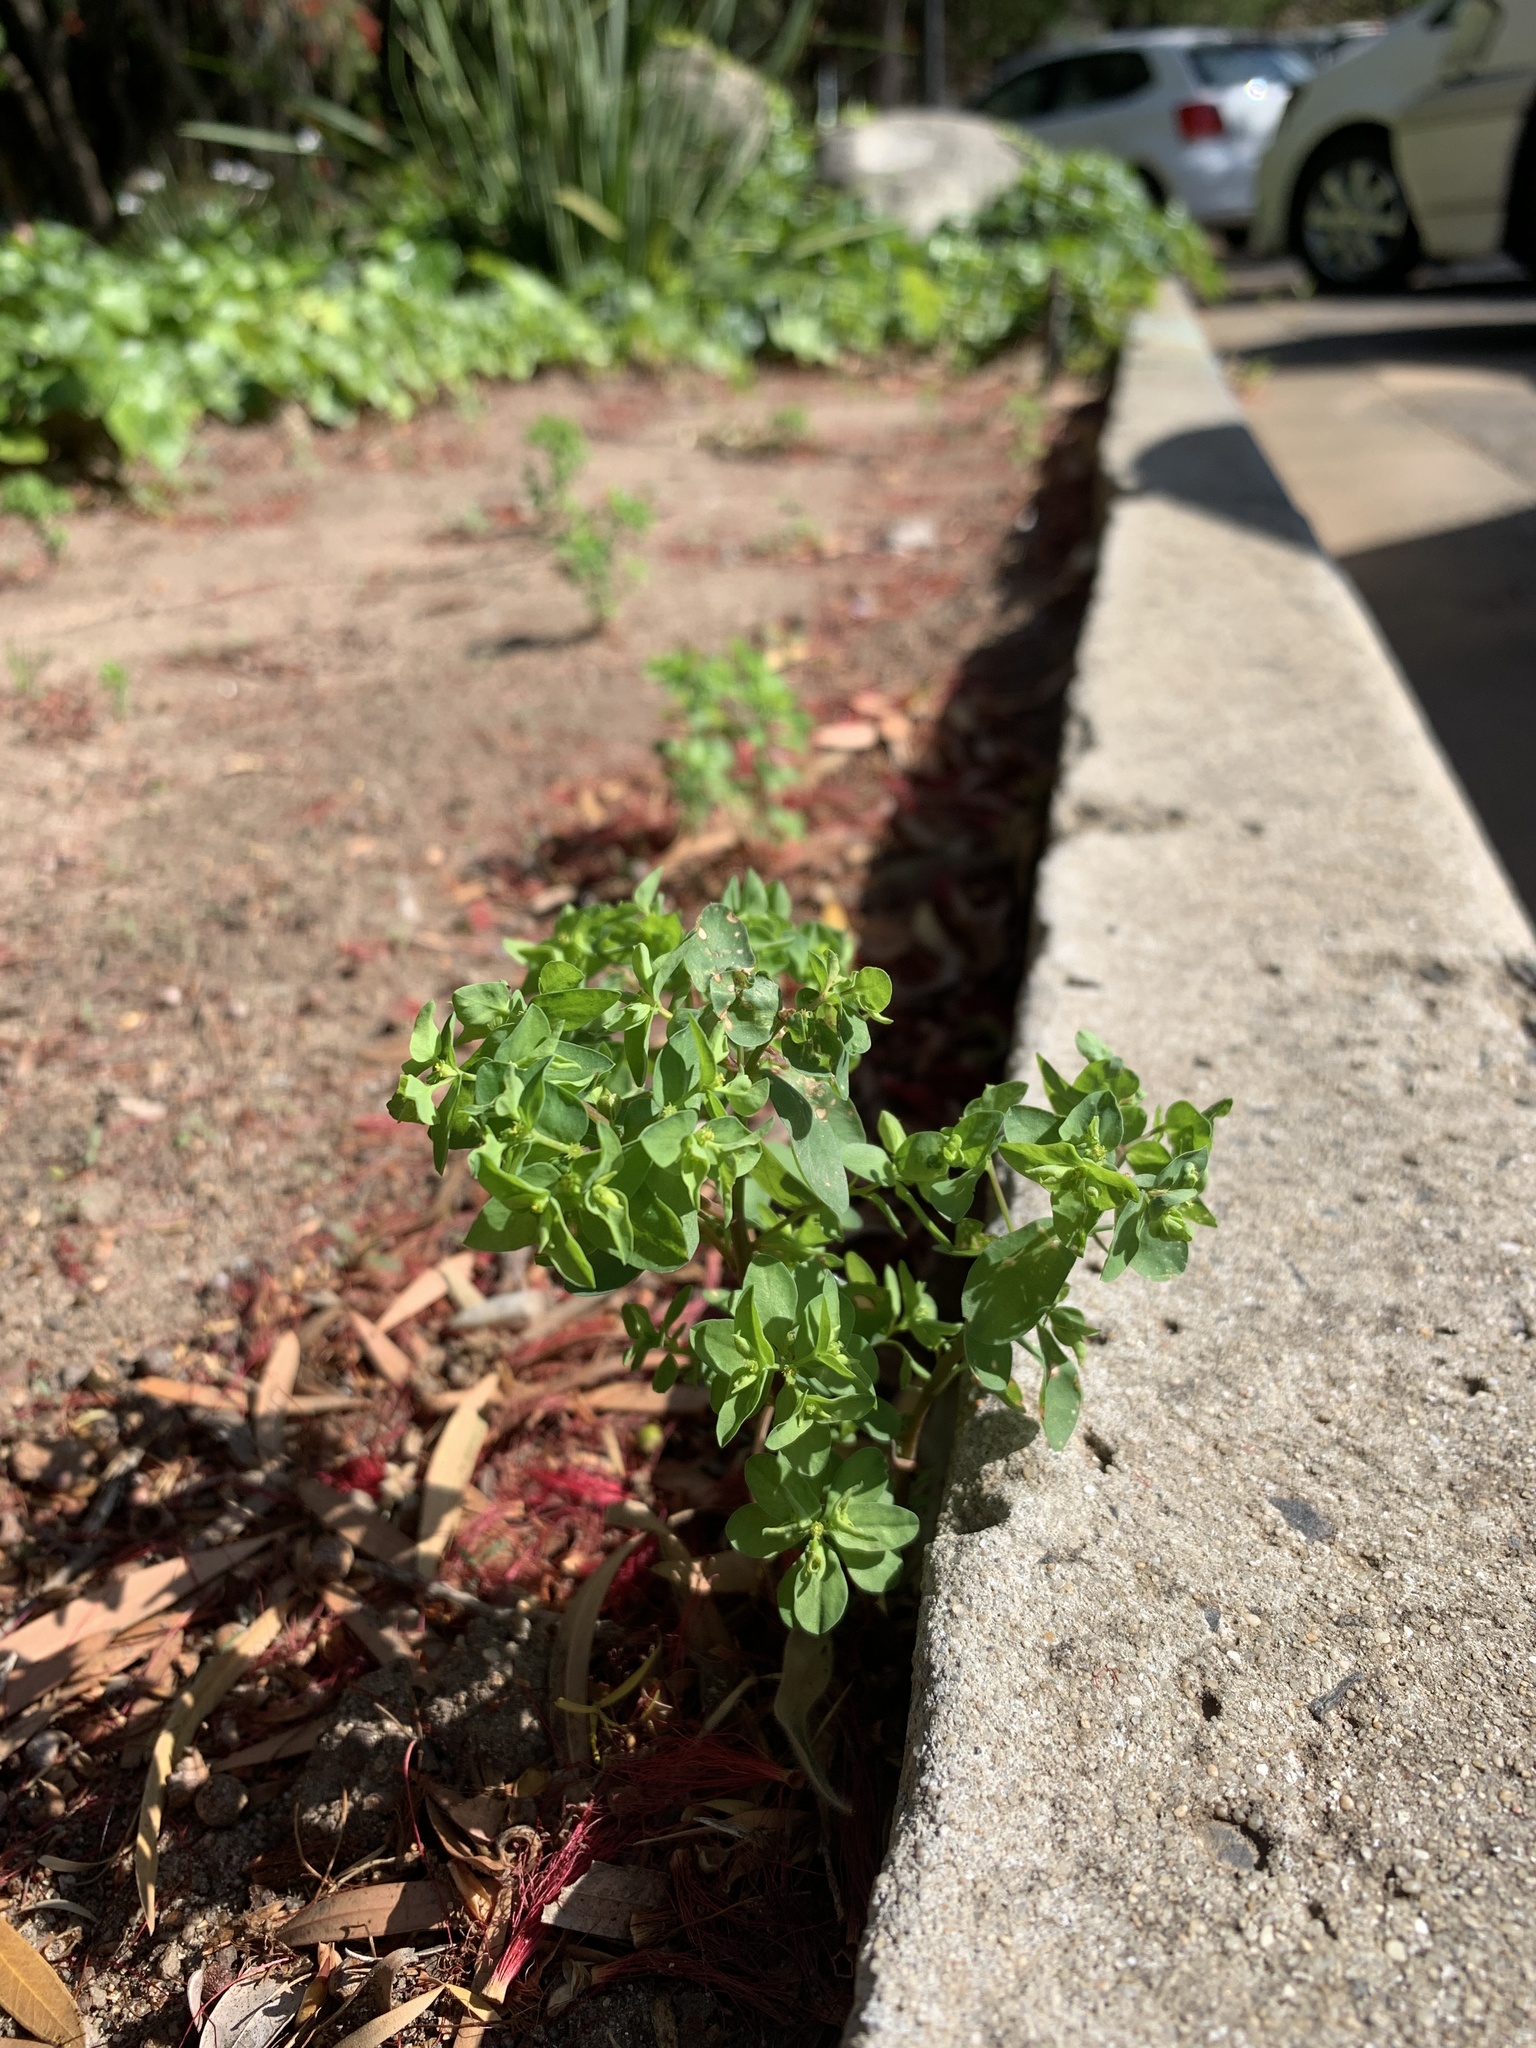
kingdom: Plantae
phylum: Tracheophyta
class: Magnoliopsida
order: Malpighiales
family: Euphorbiaceae
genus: Euphorbia
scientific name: Euphorbia peplus
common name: Petty spurge
